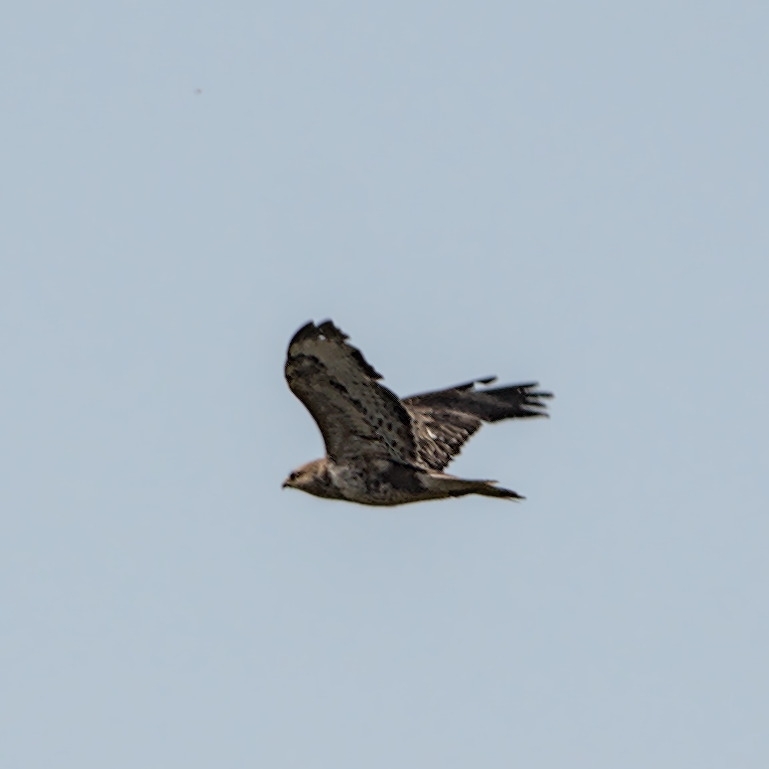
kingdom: Animalia
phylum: Chordata
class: Aves
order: Accipitriformes
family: Accipitridae
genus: Buteo
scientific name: Buteo buteo
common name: Common buzzard
